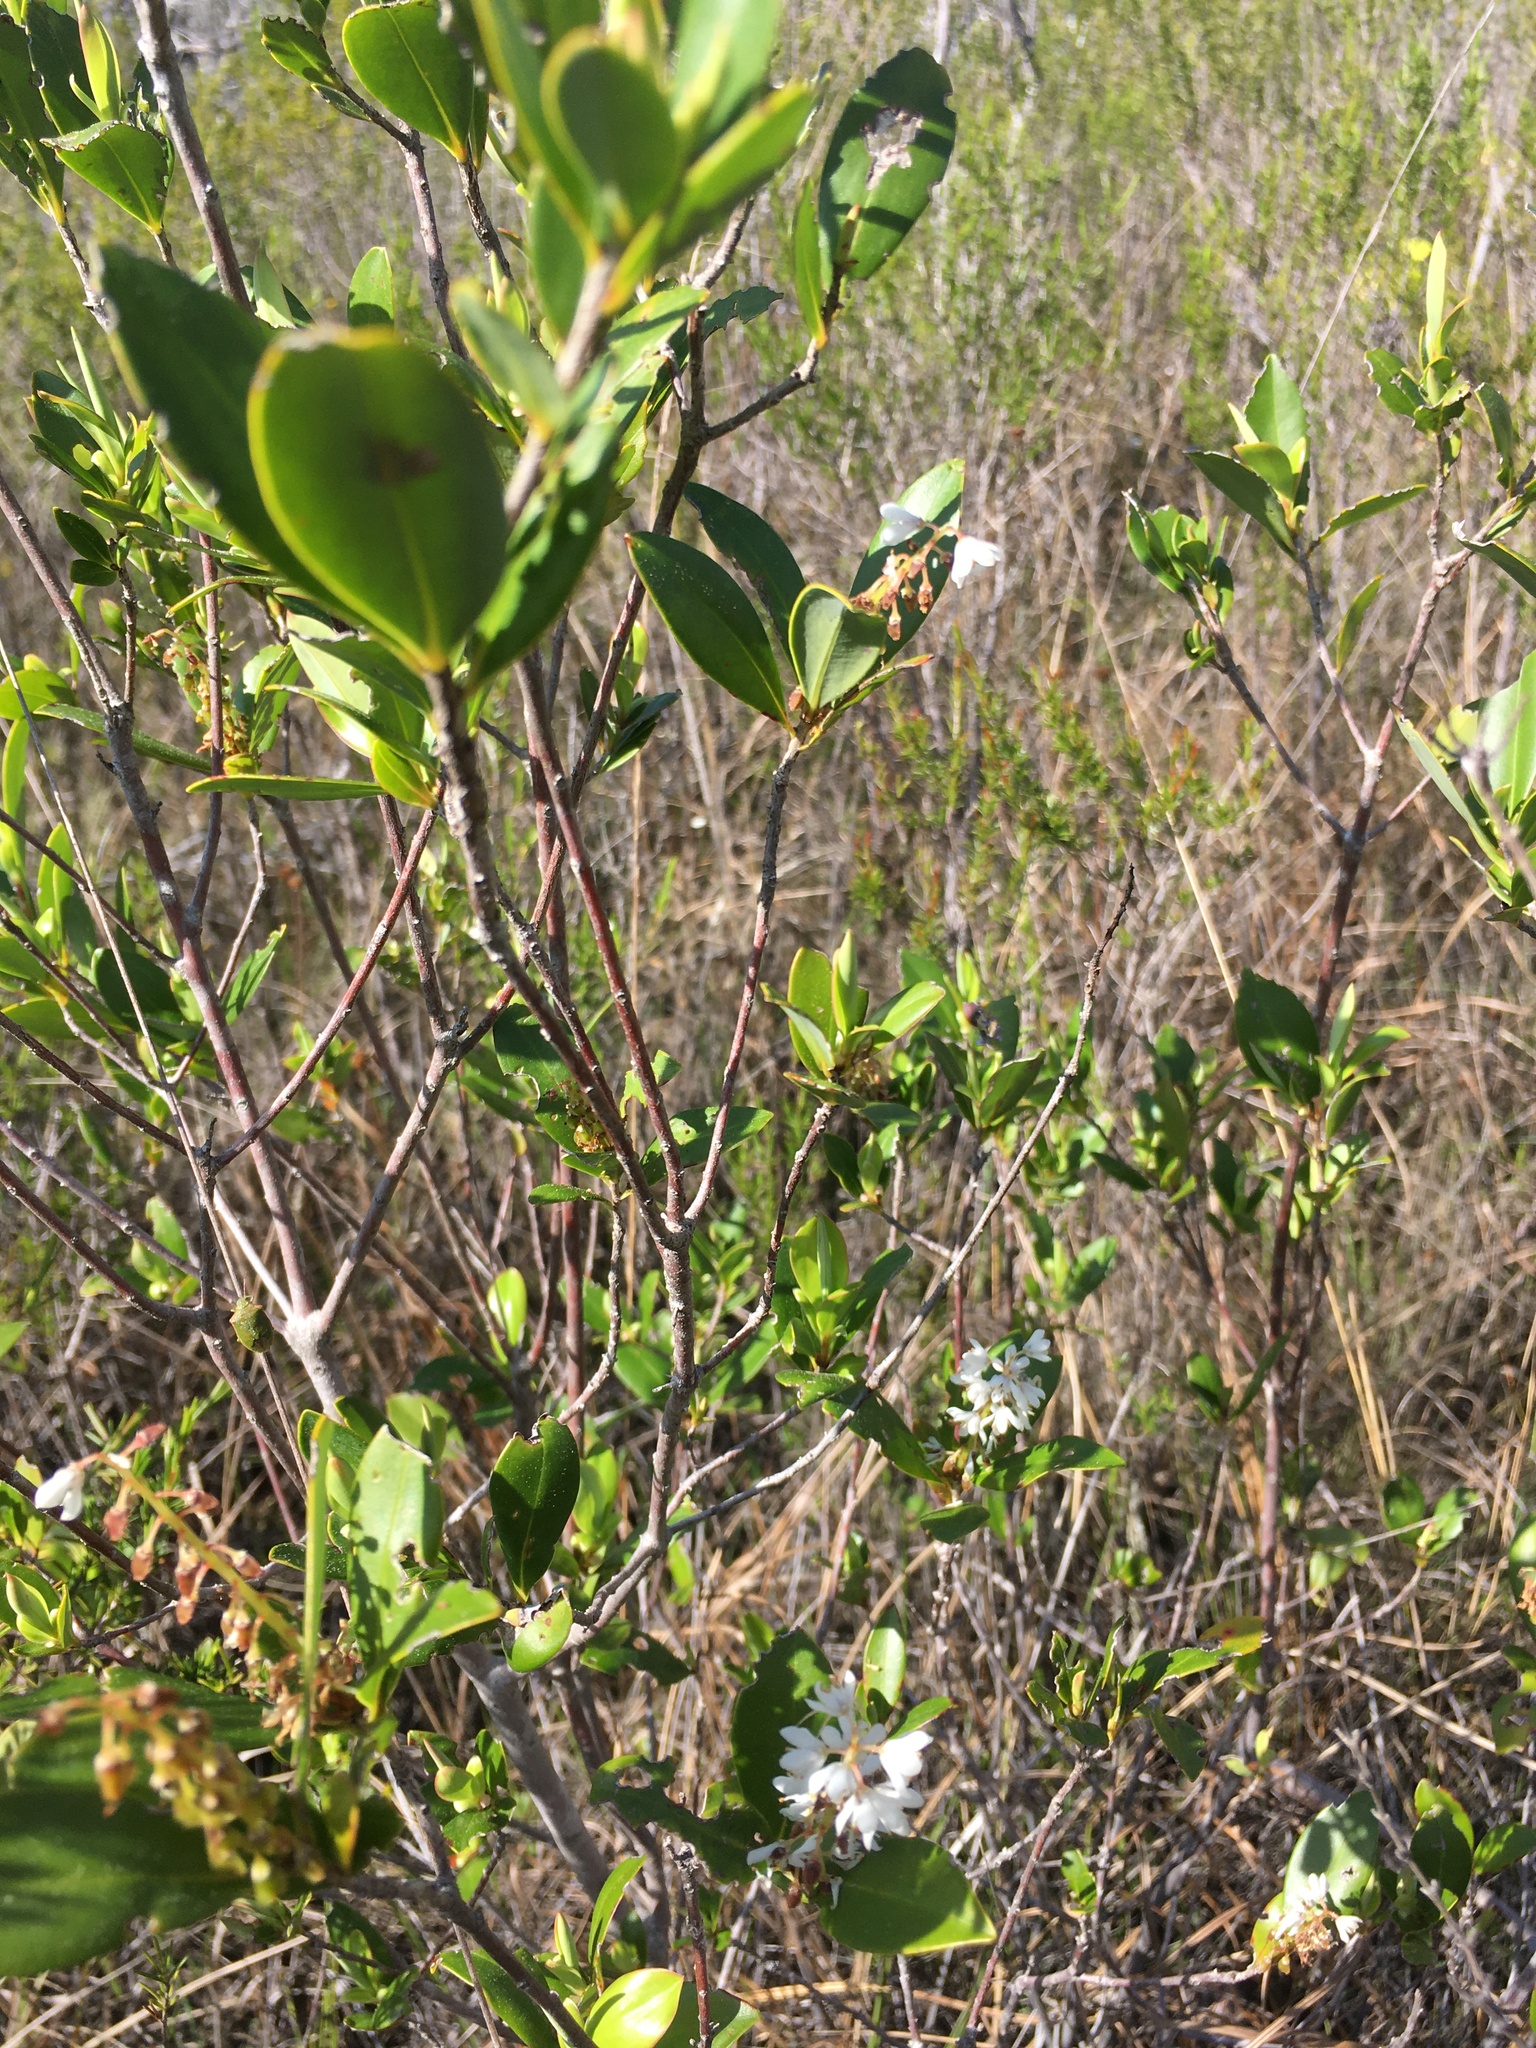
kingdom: Plantae
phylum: Tracheophyta
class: Magnoliopsida
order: Ericales
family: Cyrillaceae
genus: Cliftonia
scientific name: Cliftonia monophylla
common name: Titi
